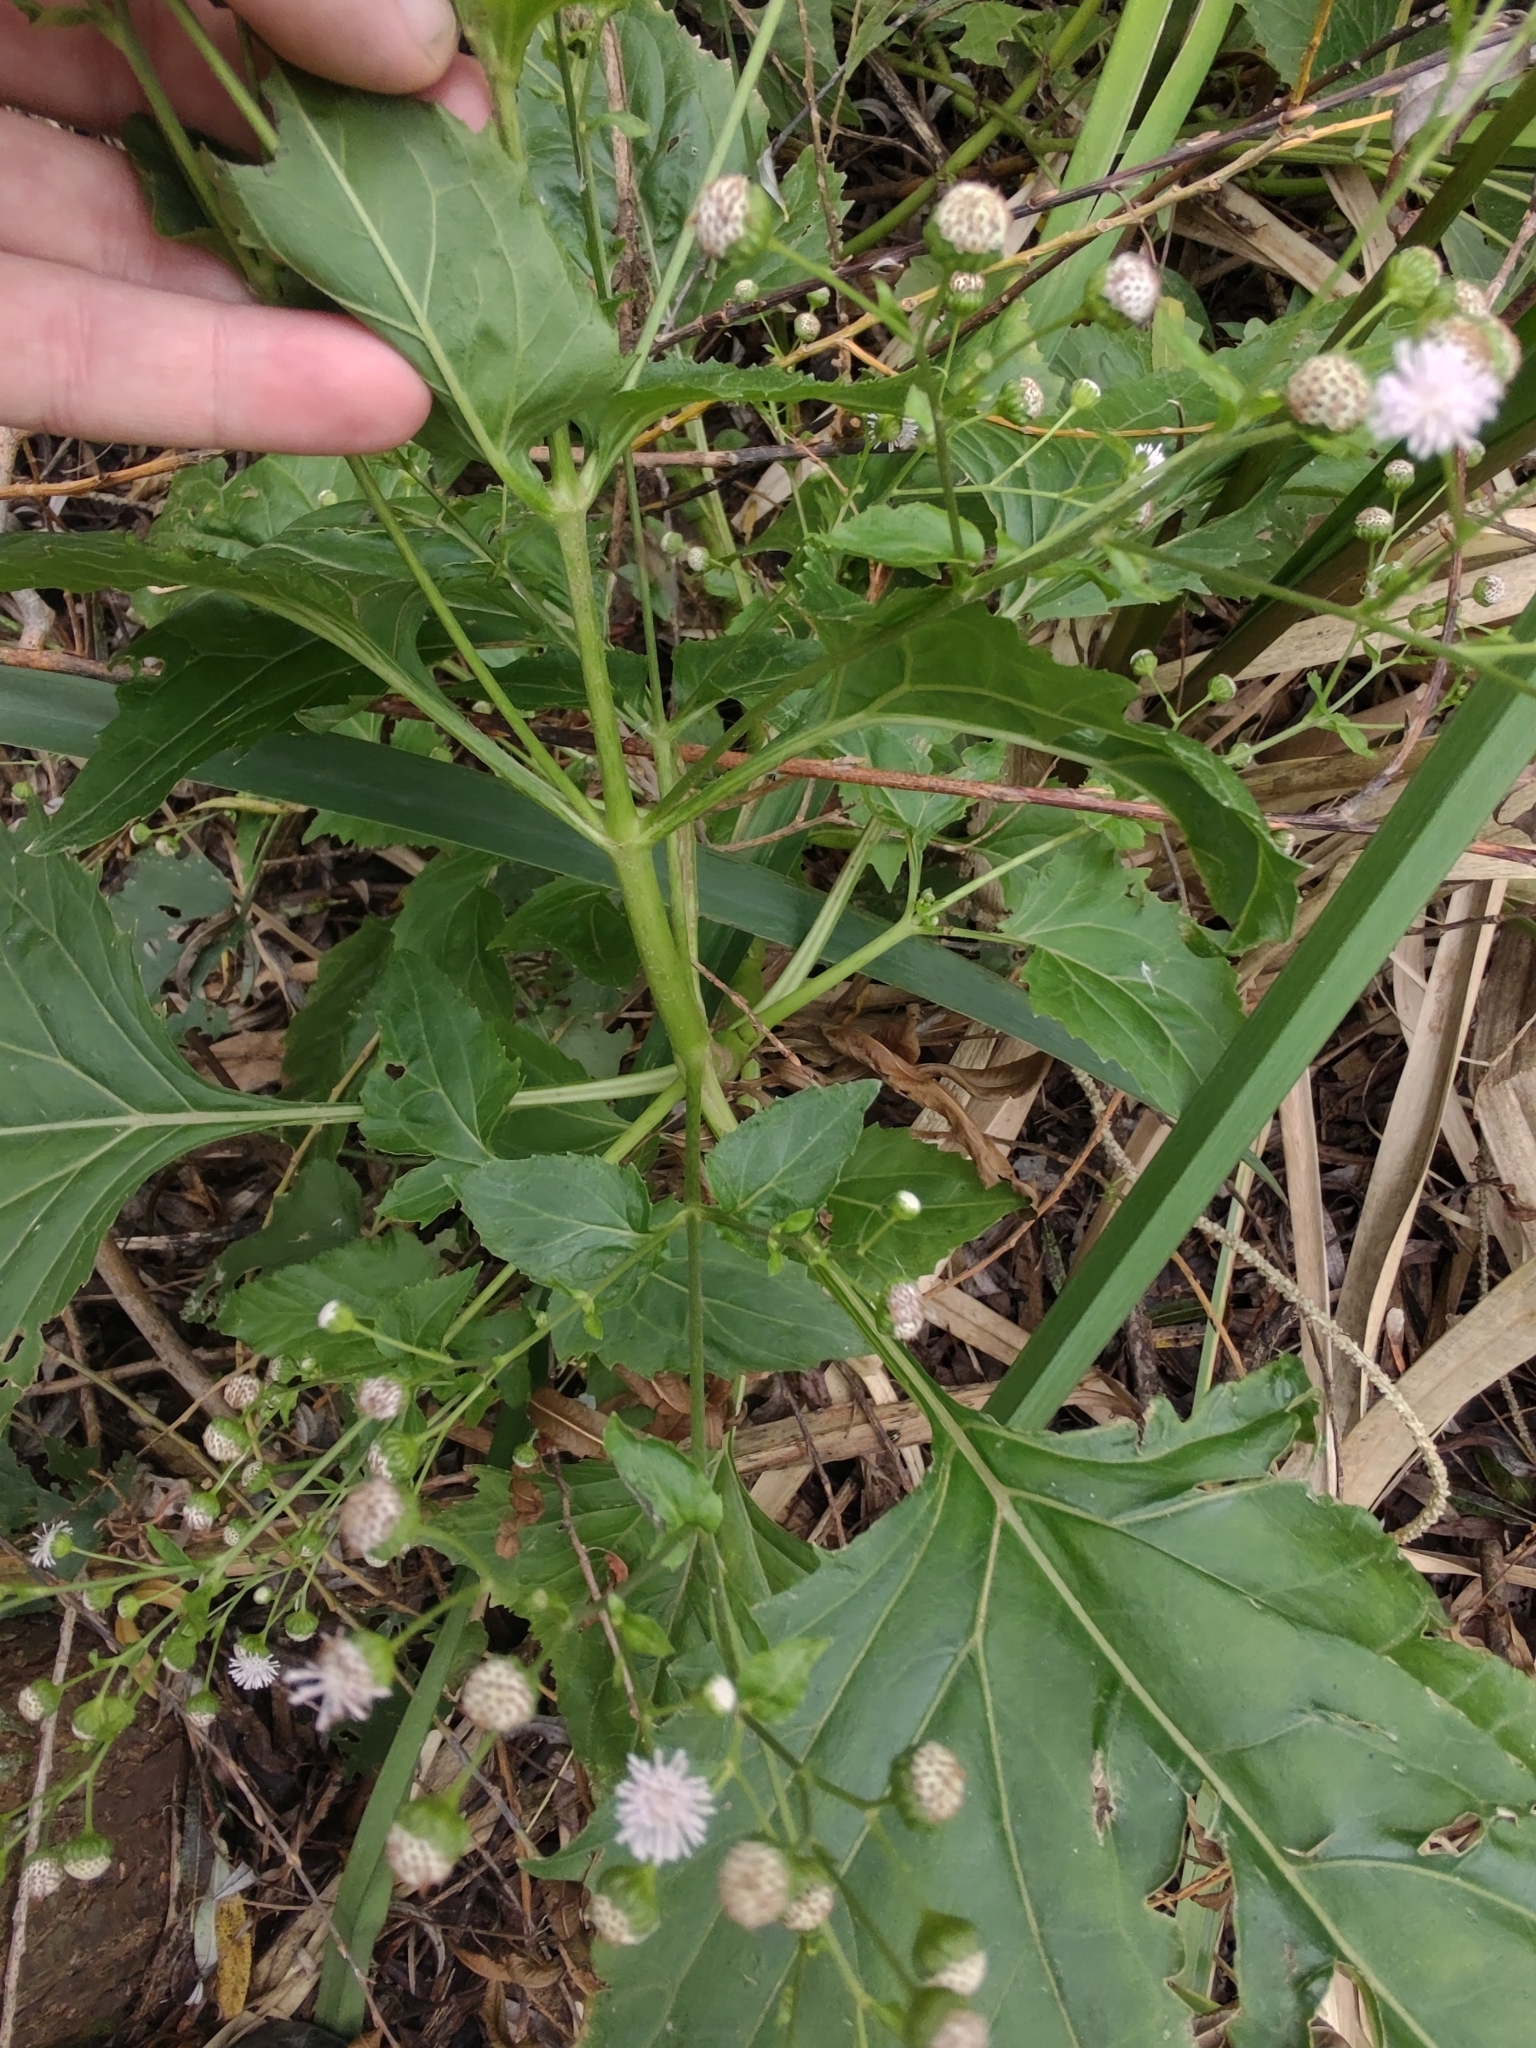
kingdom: Plantae
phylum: Tracheophyta
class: Magnoliopsida
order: Asterales
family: Asteraceae
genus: Adenostemma
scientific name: Adenostemma brasilianum
